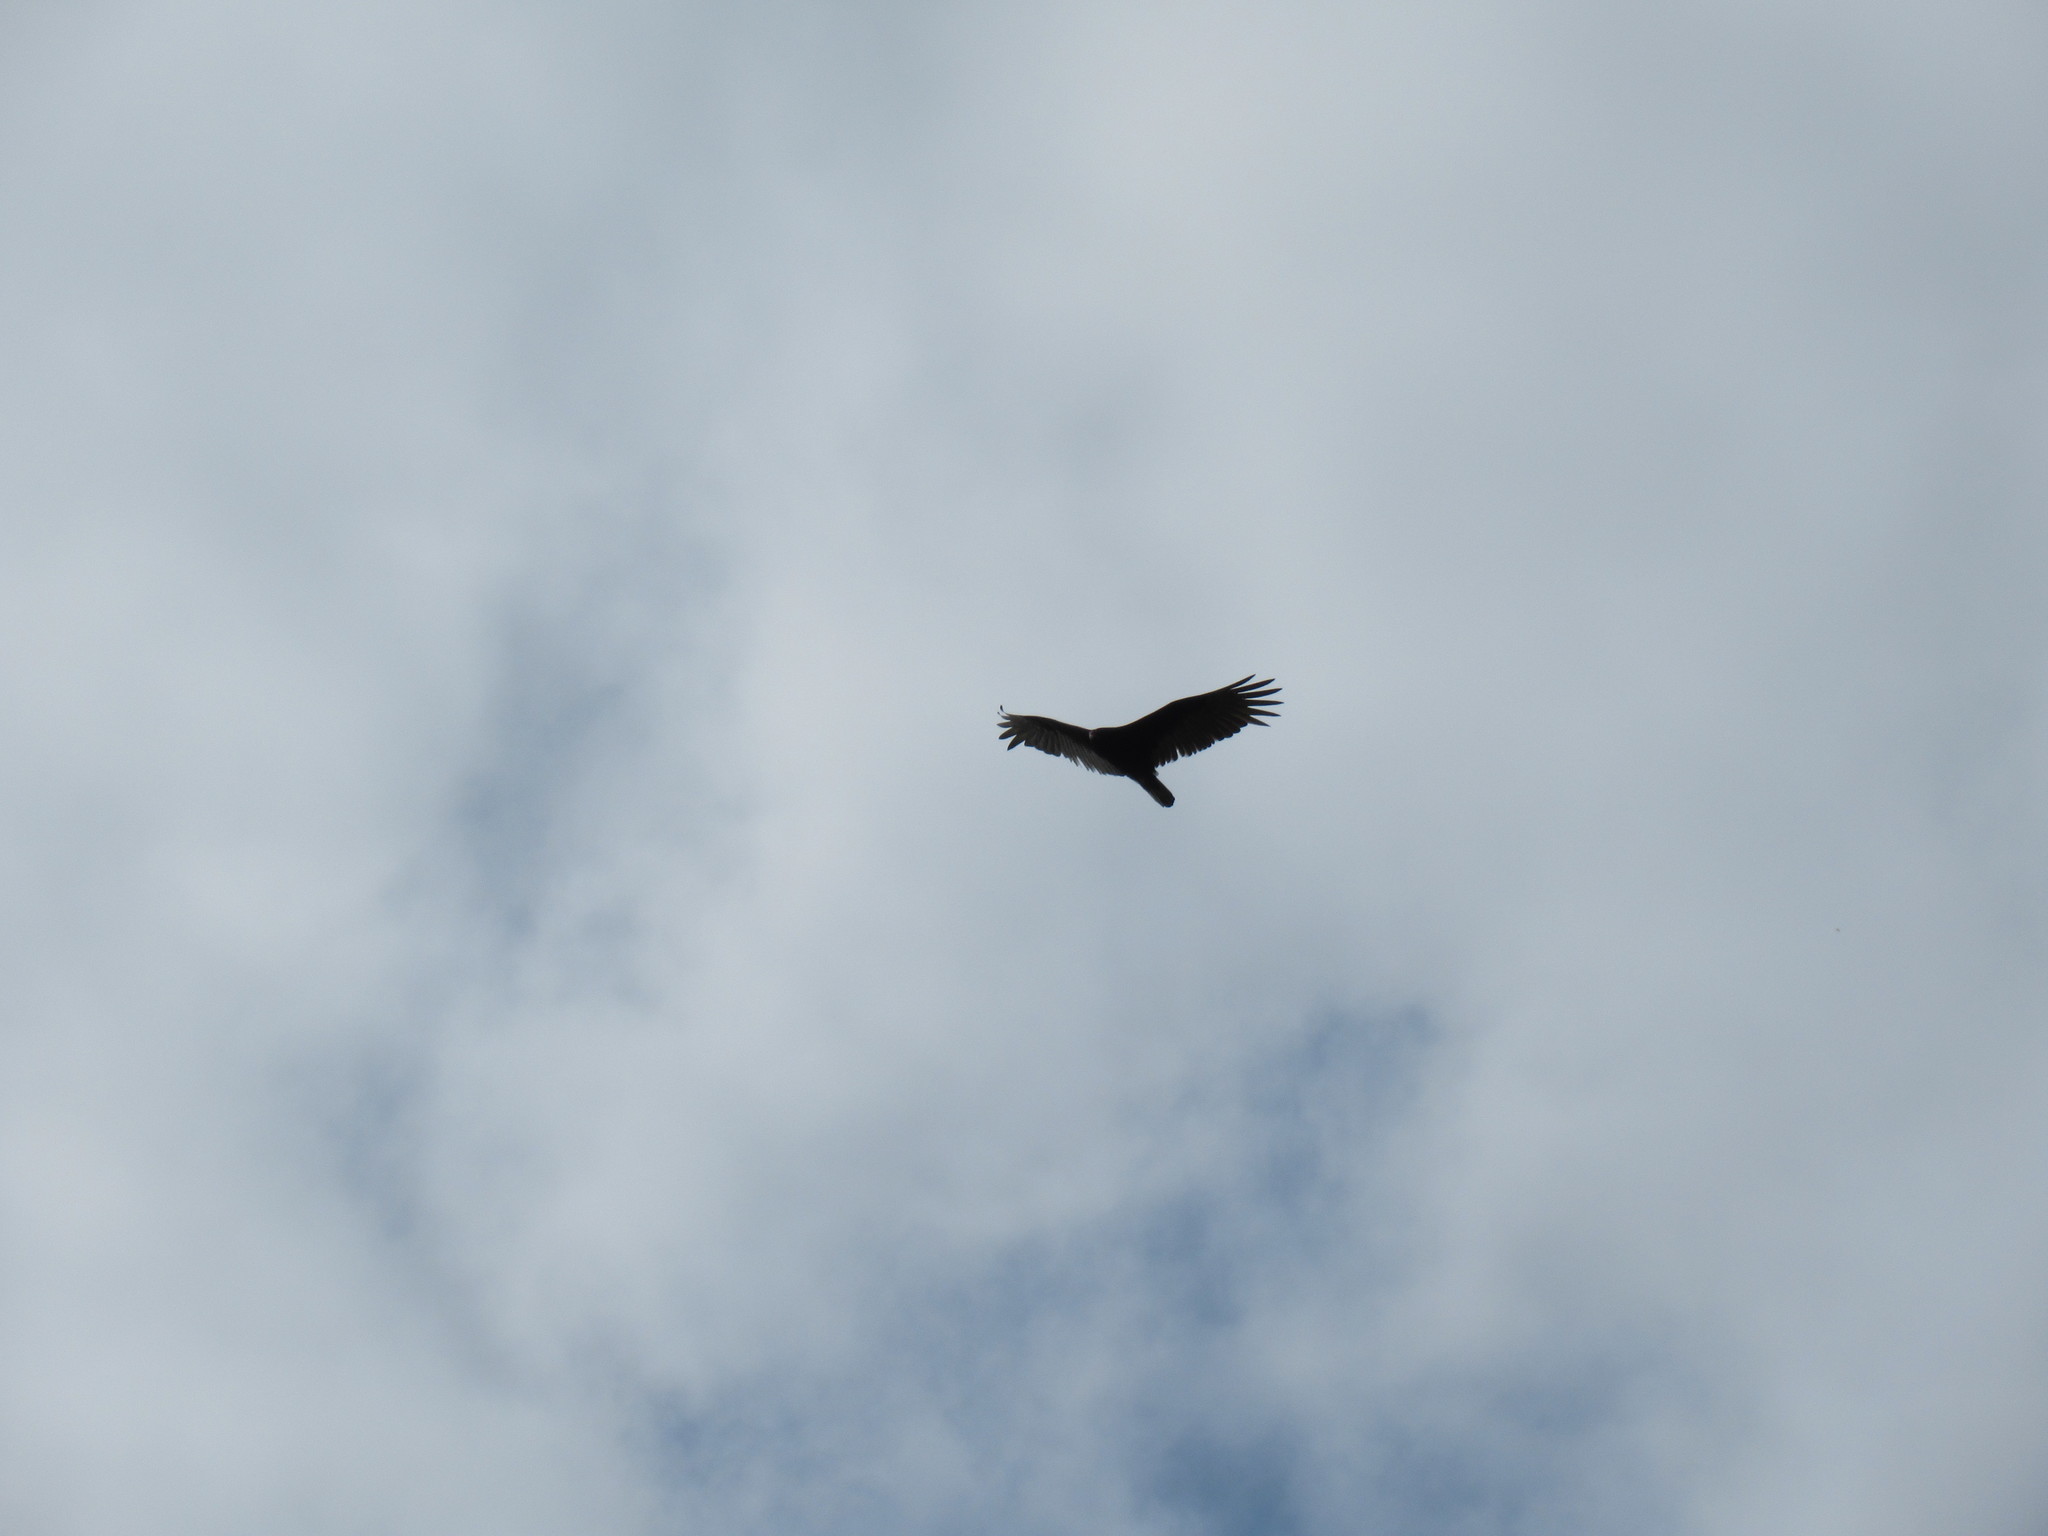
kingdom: Animalia
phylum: Chordata
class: Aves
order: Accipitriformes
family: Cathartidae
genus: Cathartes
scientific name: Cathartes aura
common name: Turkey vulture
